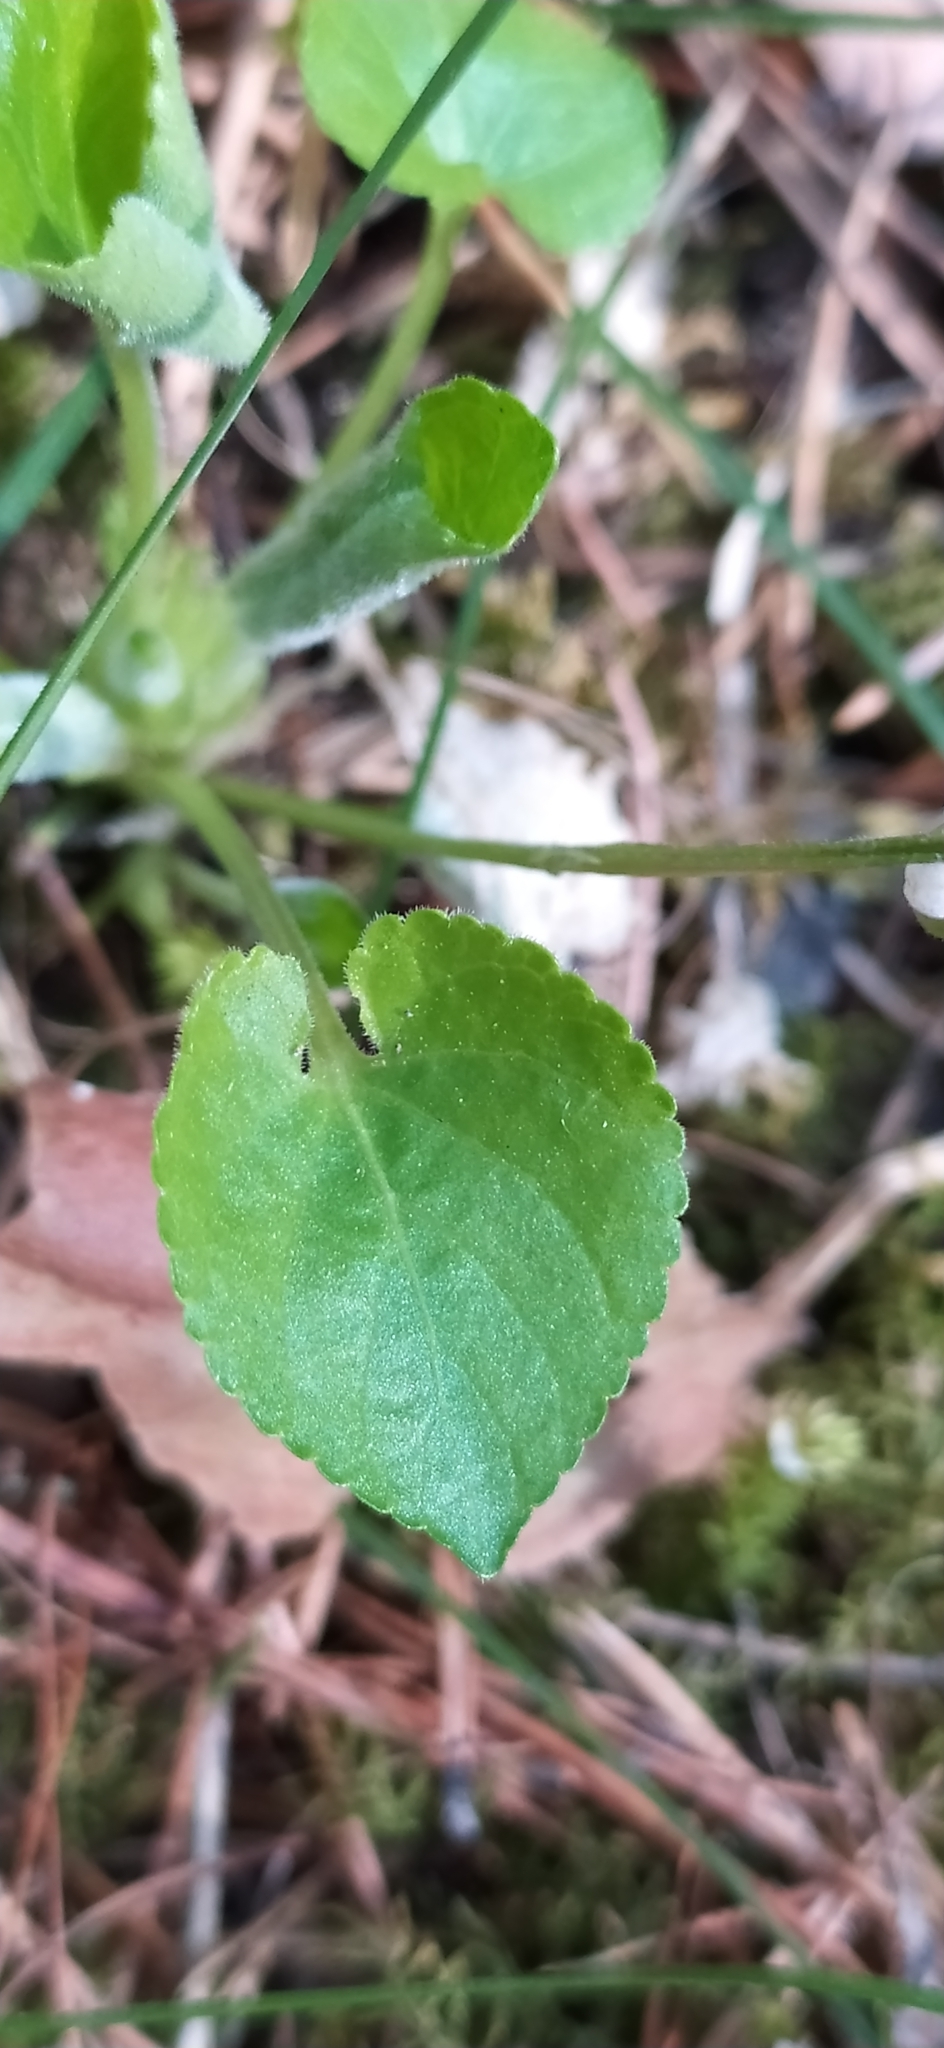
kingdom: Plantae
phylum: Tracheophyta
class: Magnoliopsida
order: Malpighiales
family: Violaceae
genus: Viola
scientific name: Viola collina
